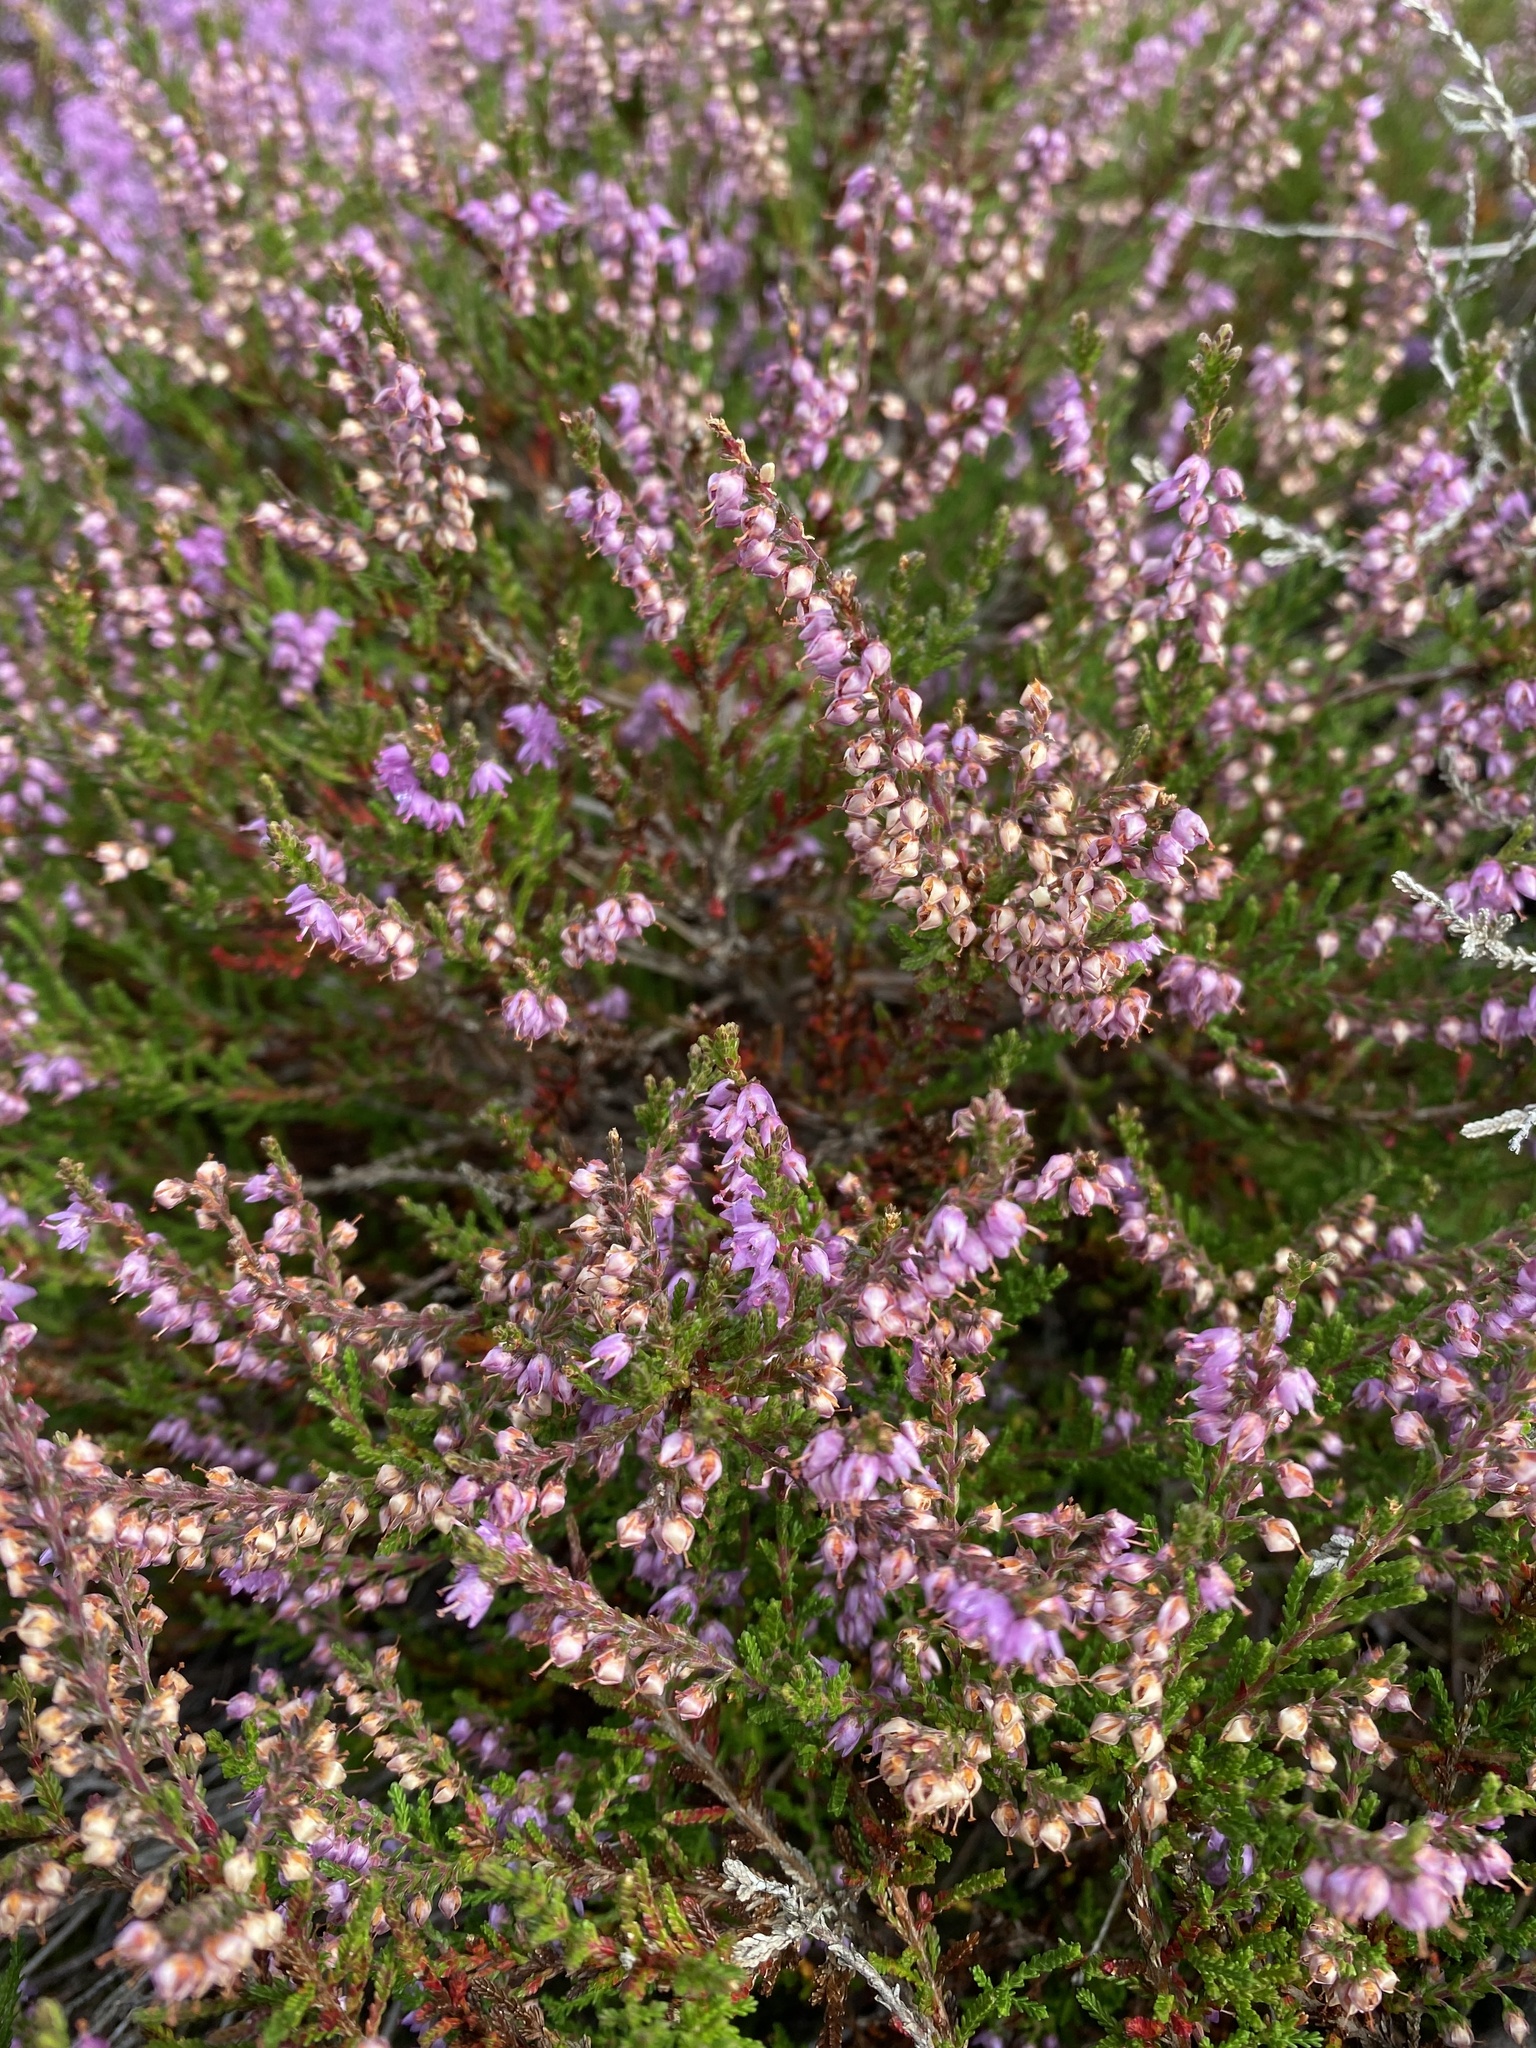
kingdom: Plantae
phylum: Tracheophyta
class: Magnoliopsida
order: Ericales
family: Ericaceae
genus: Calluna
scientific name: Calluna vulgaris
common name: Heather
